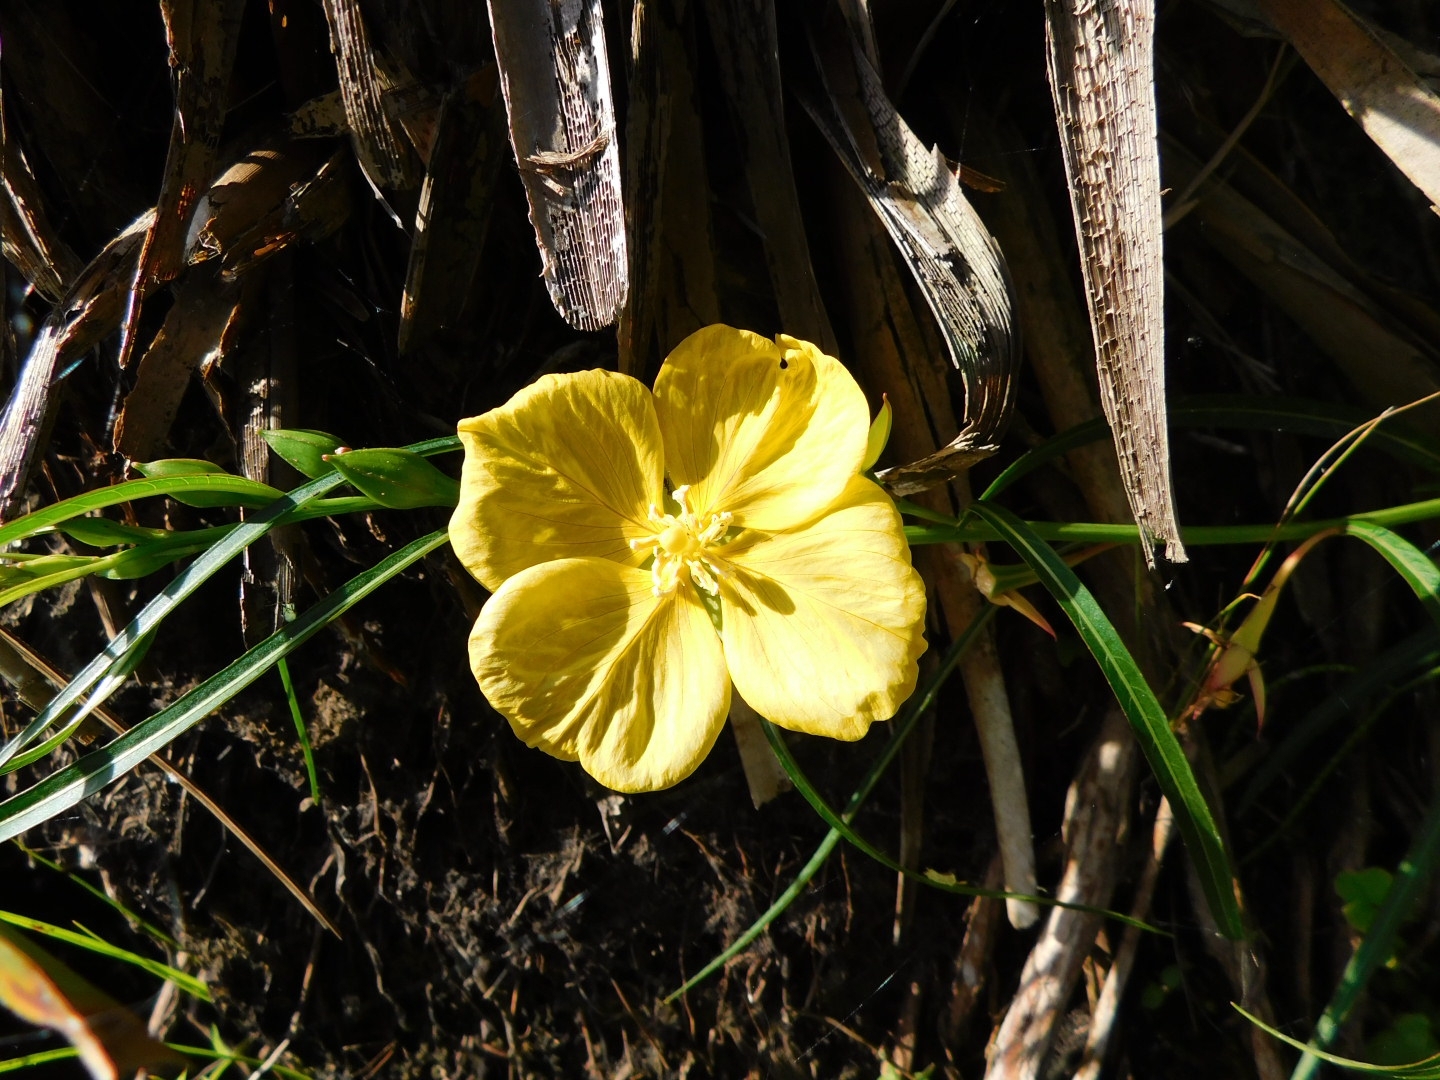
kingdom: Plantae
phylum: Tracheophyta
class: Magnoliopsida
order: Myrtales
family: Onagraceae
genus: Ludwigia
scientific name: Ludwigia longifolia
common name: Longleaf primrose-willow
